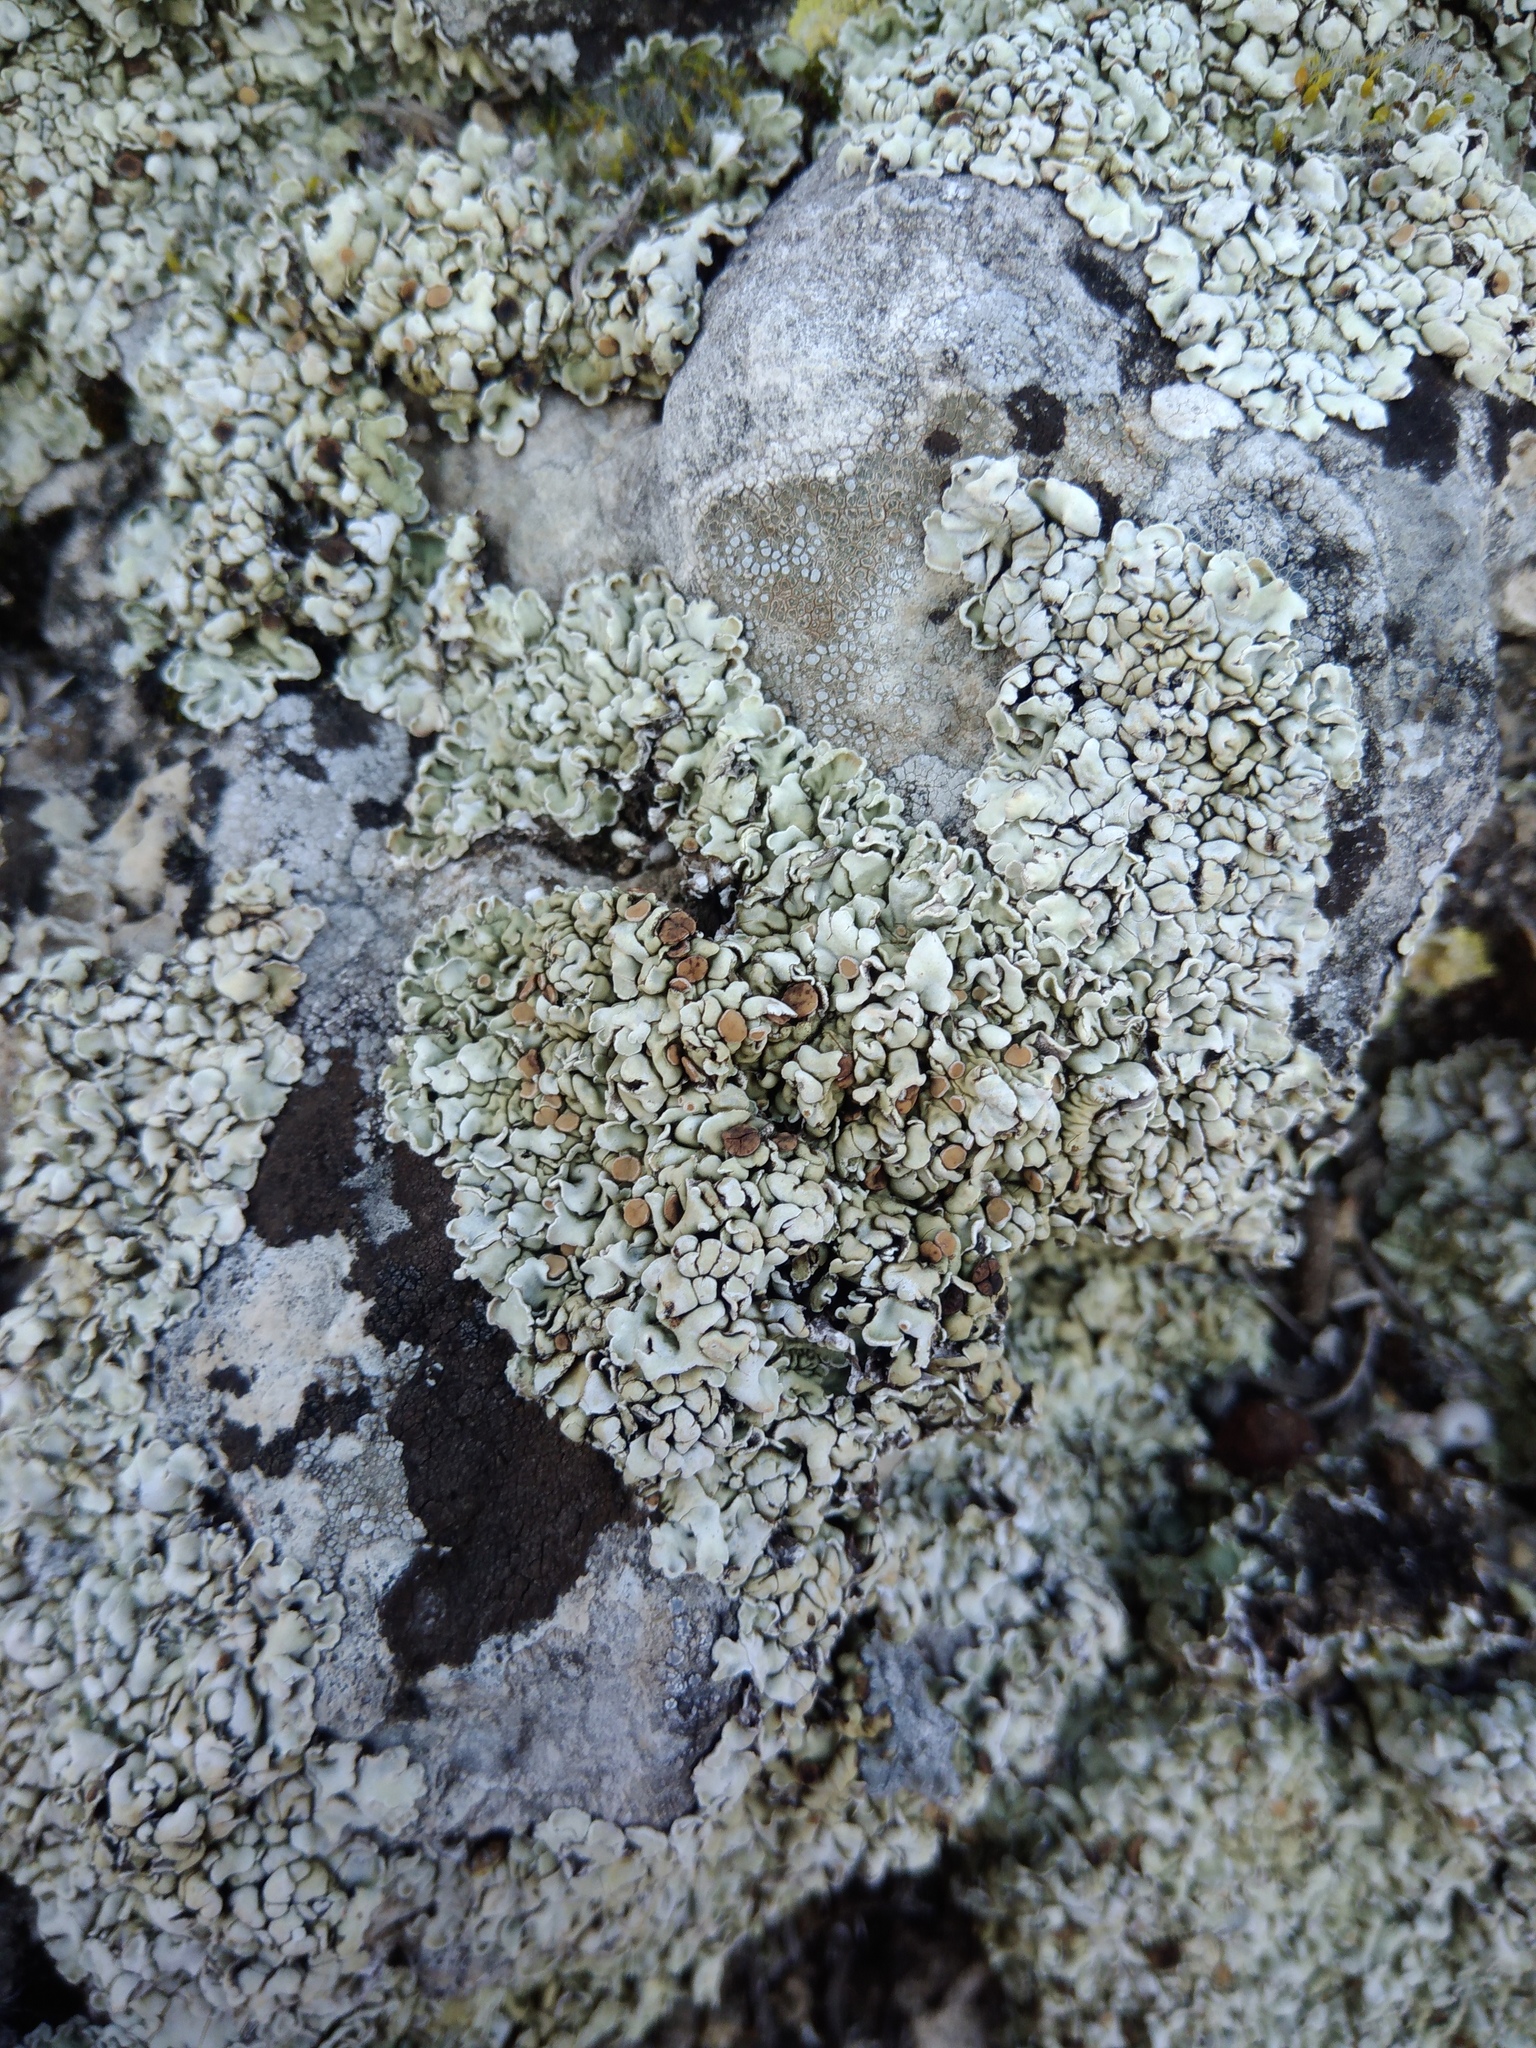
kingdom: Fungi
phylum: Ascomycota
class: Lecanoromycetes
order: Lecanorales
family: Stereocaulaceae
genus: Squamarina
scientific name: Squamarina cartilaginea
